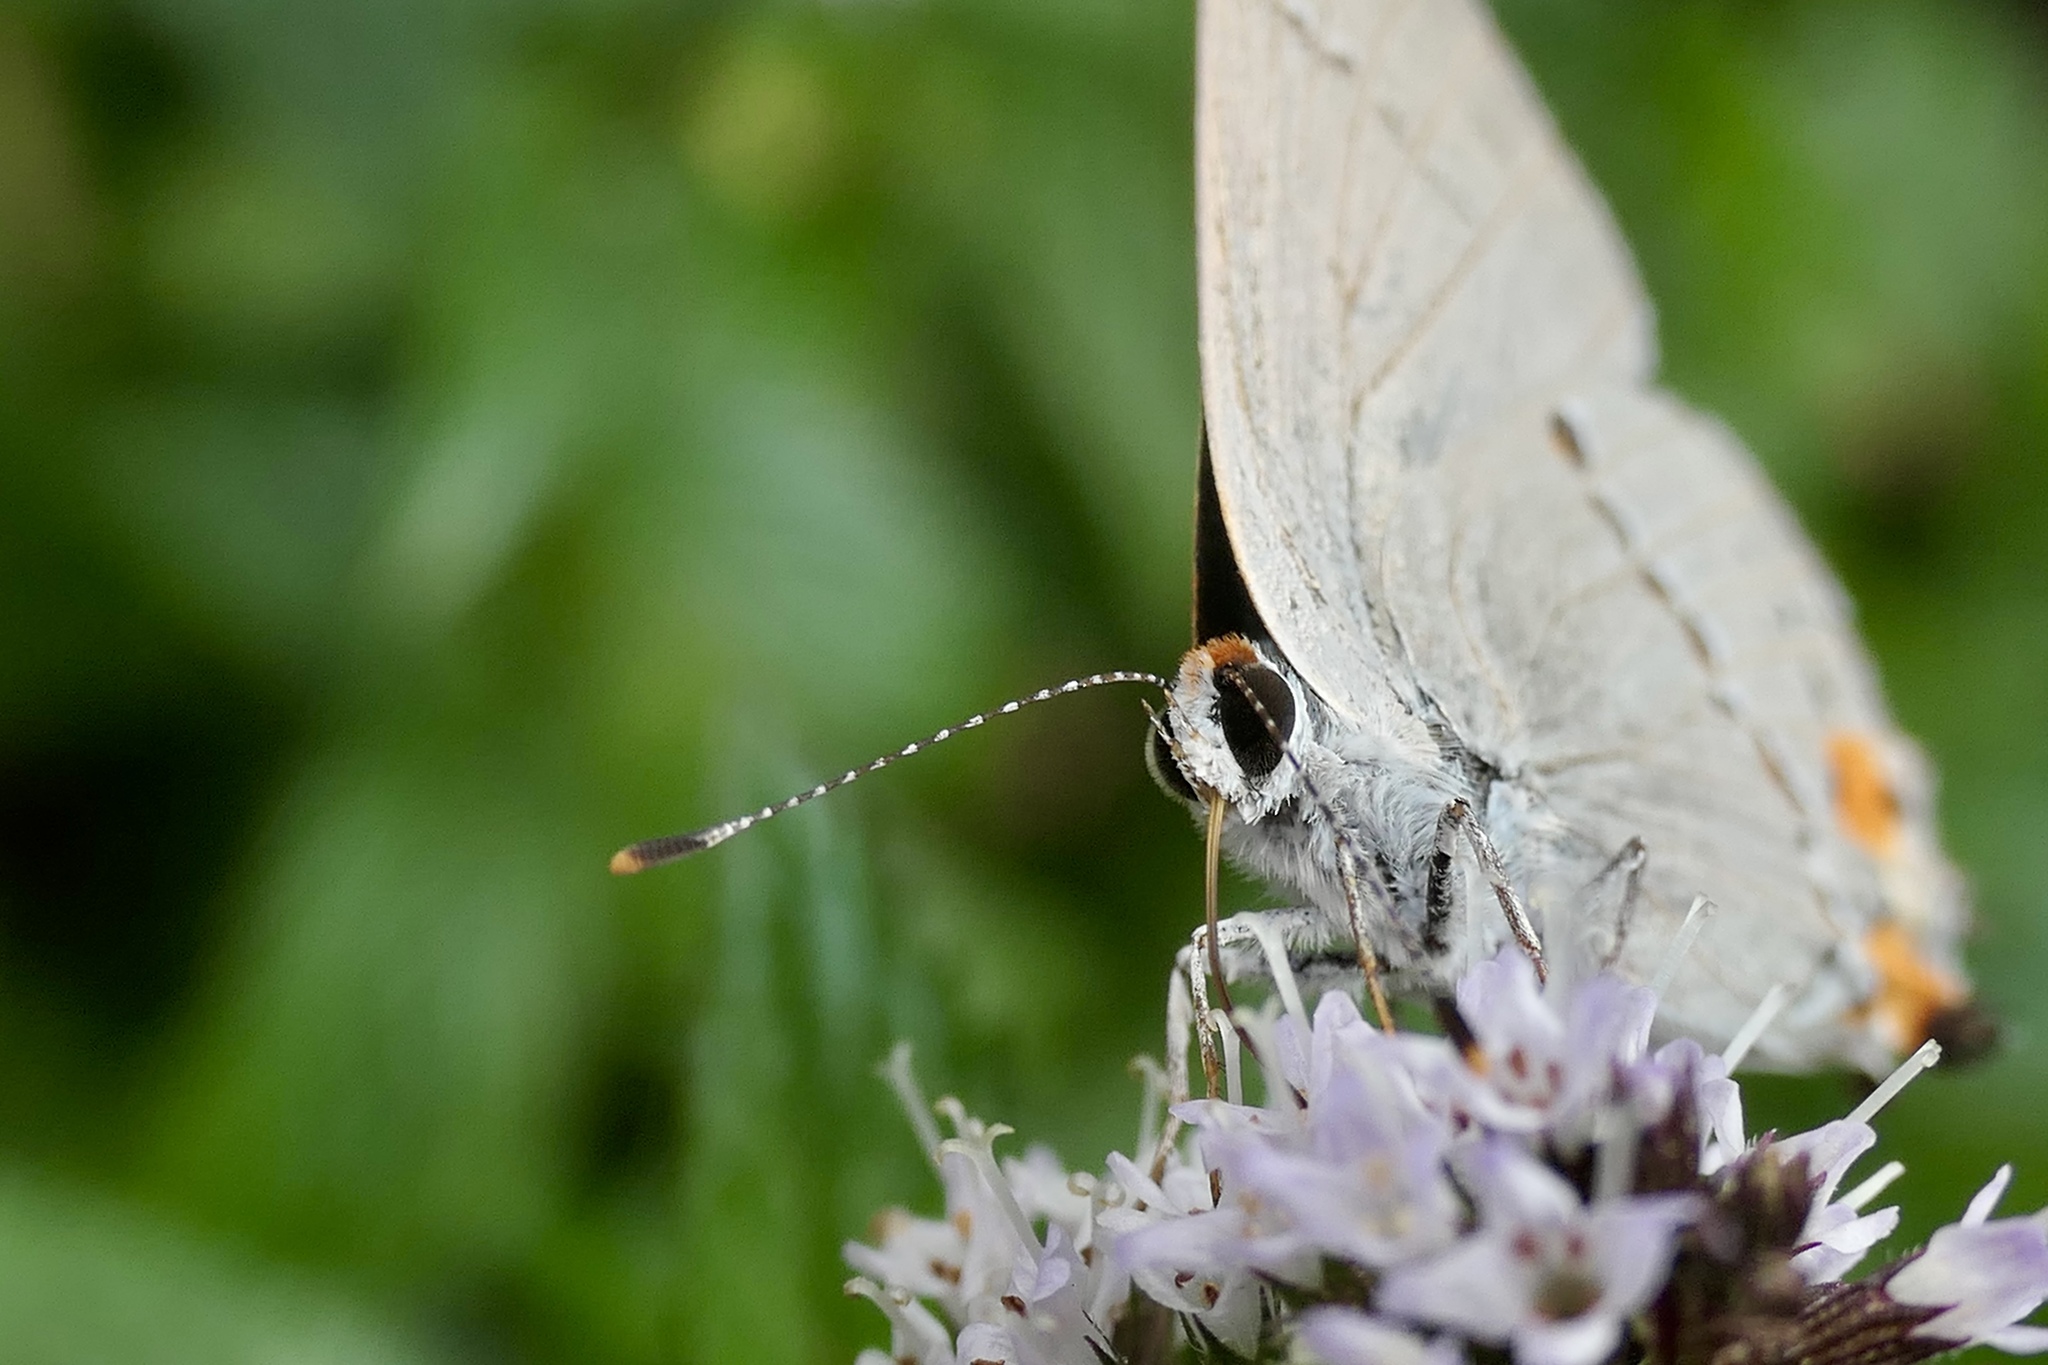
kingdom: Animalia
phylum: Arthropoda
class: Insecta
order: Lepidoptera
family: Lycaenidae
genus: Strymon
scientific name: Strymon melinus
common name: Gray hairstreak
